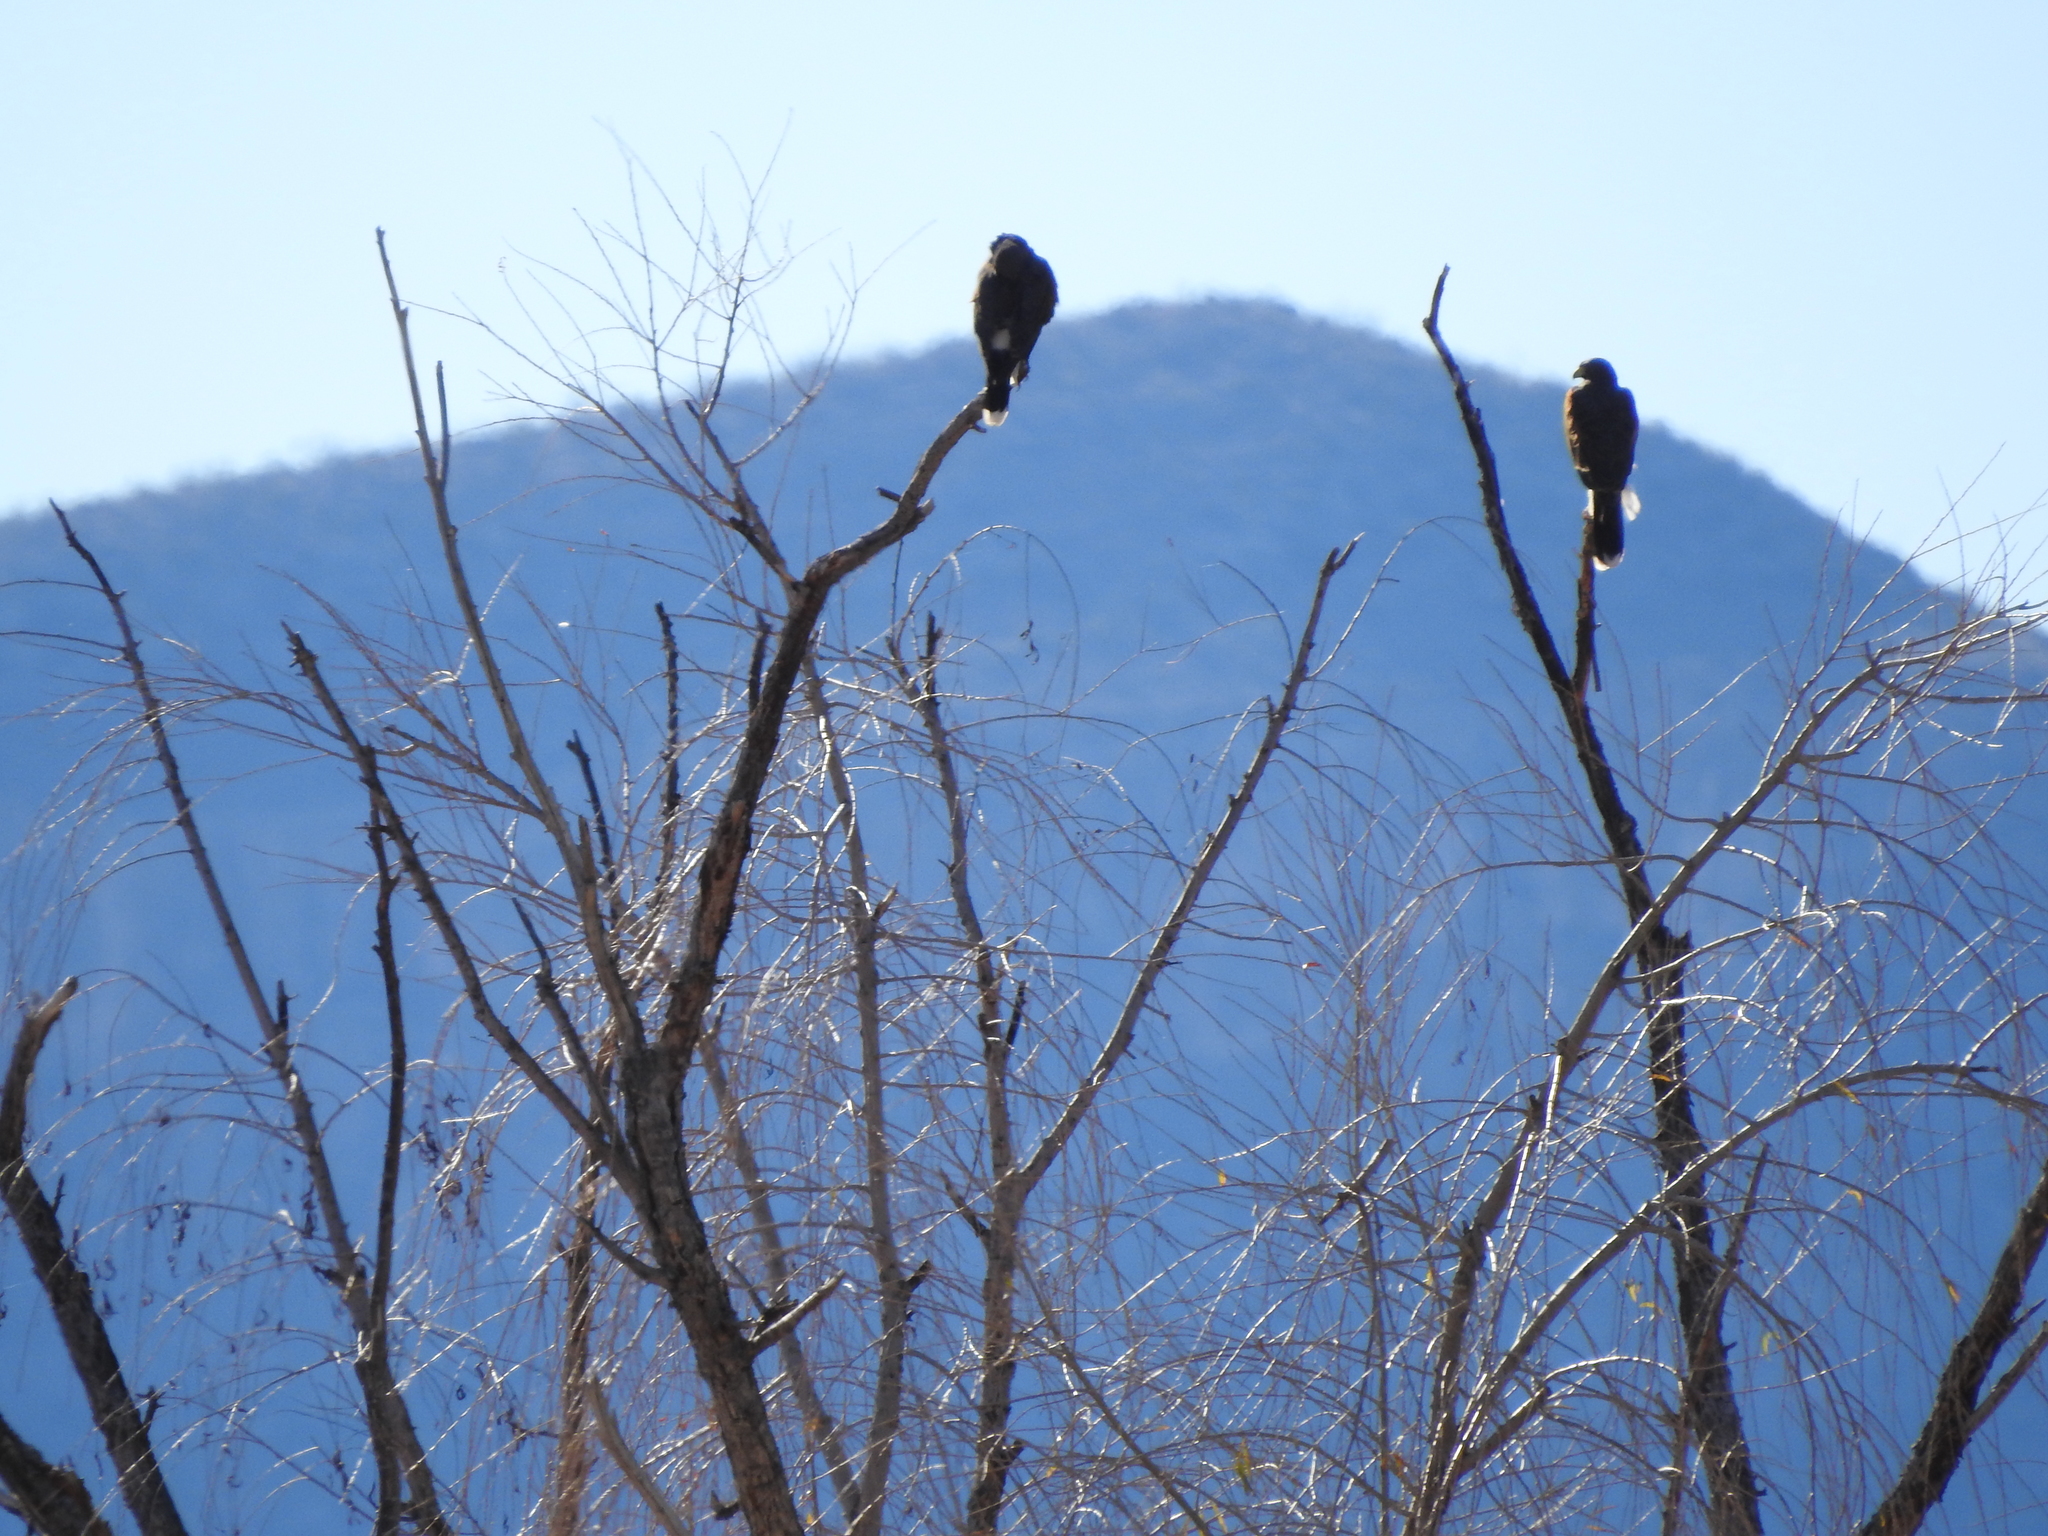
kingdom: Animalia
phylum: Chordata
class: Aves
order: Accipitriformes
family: Accipitridae
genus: Parabuteo
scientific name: Parabuteo unicinctus
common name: Harris's hawk
